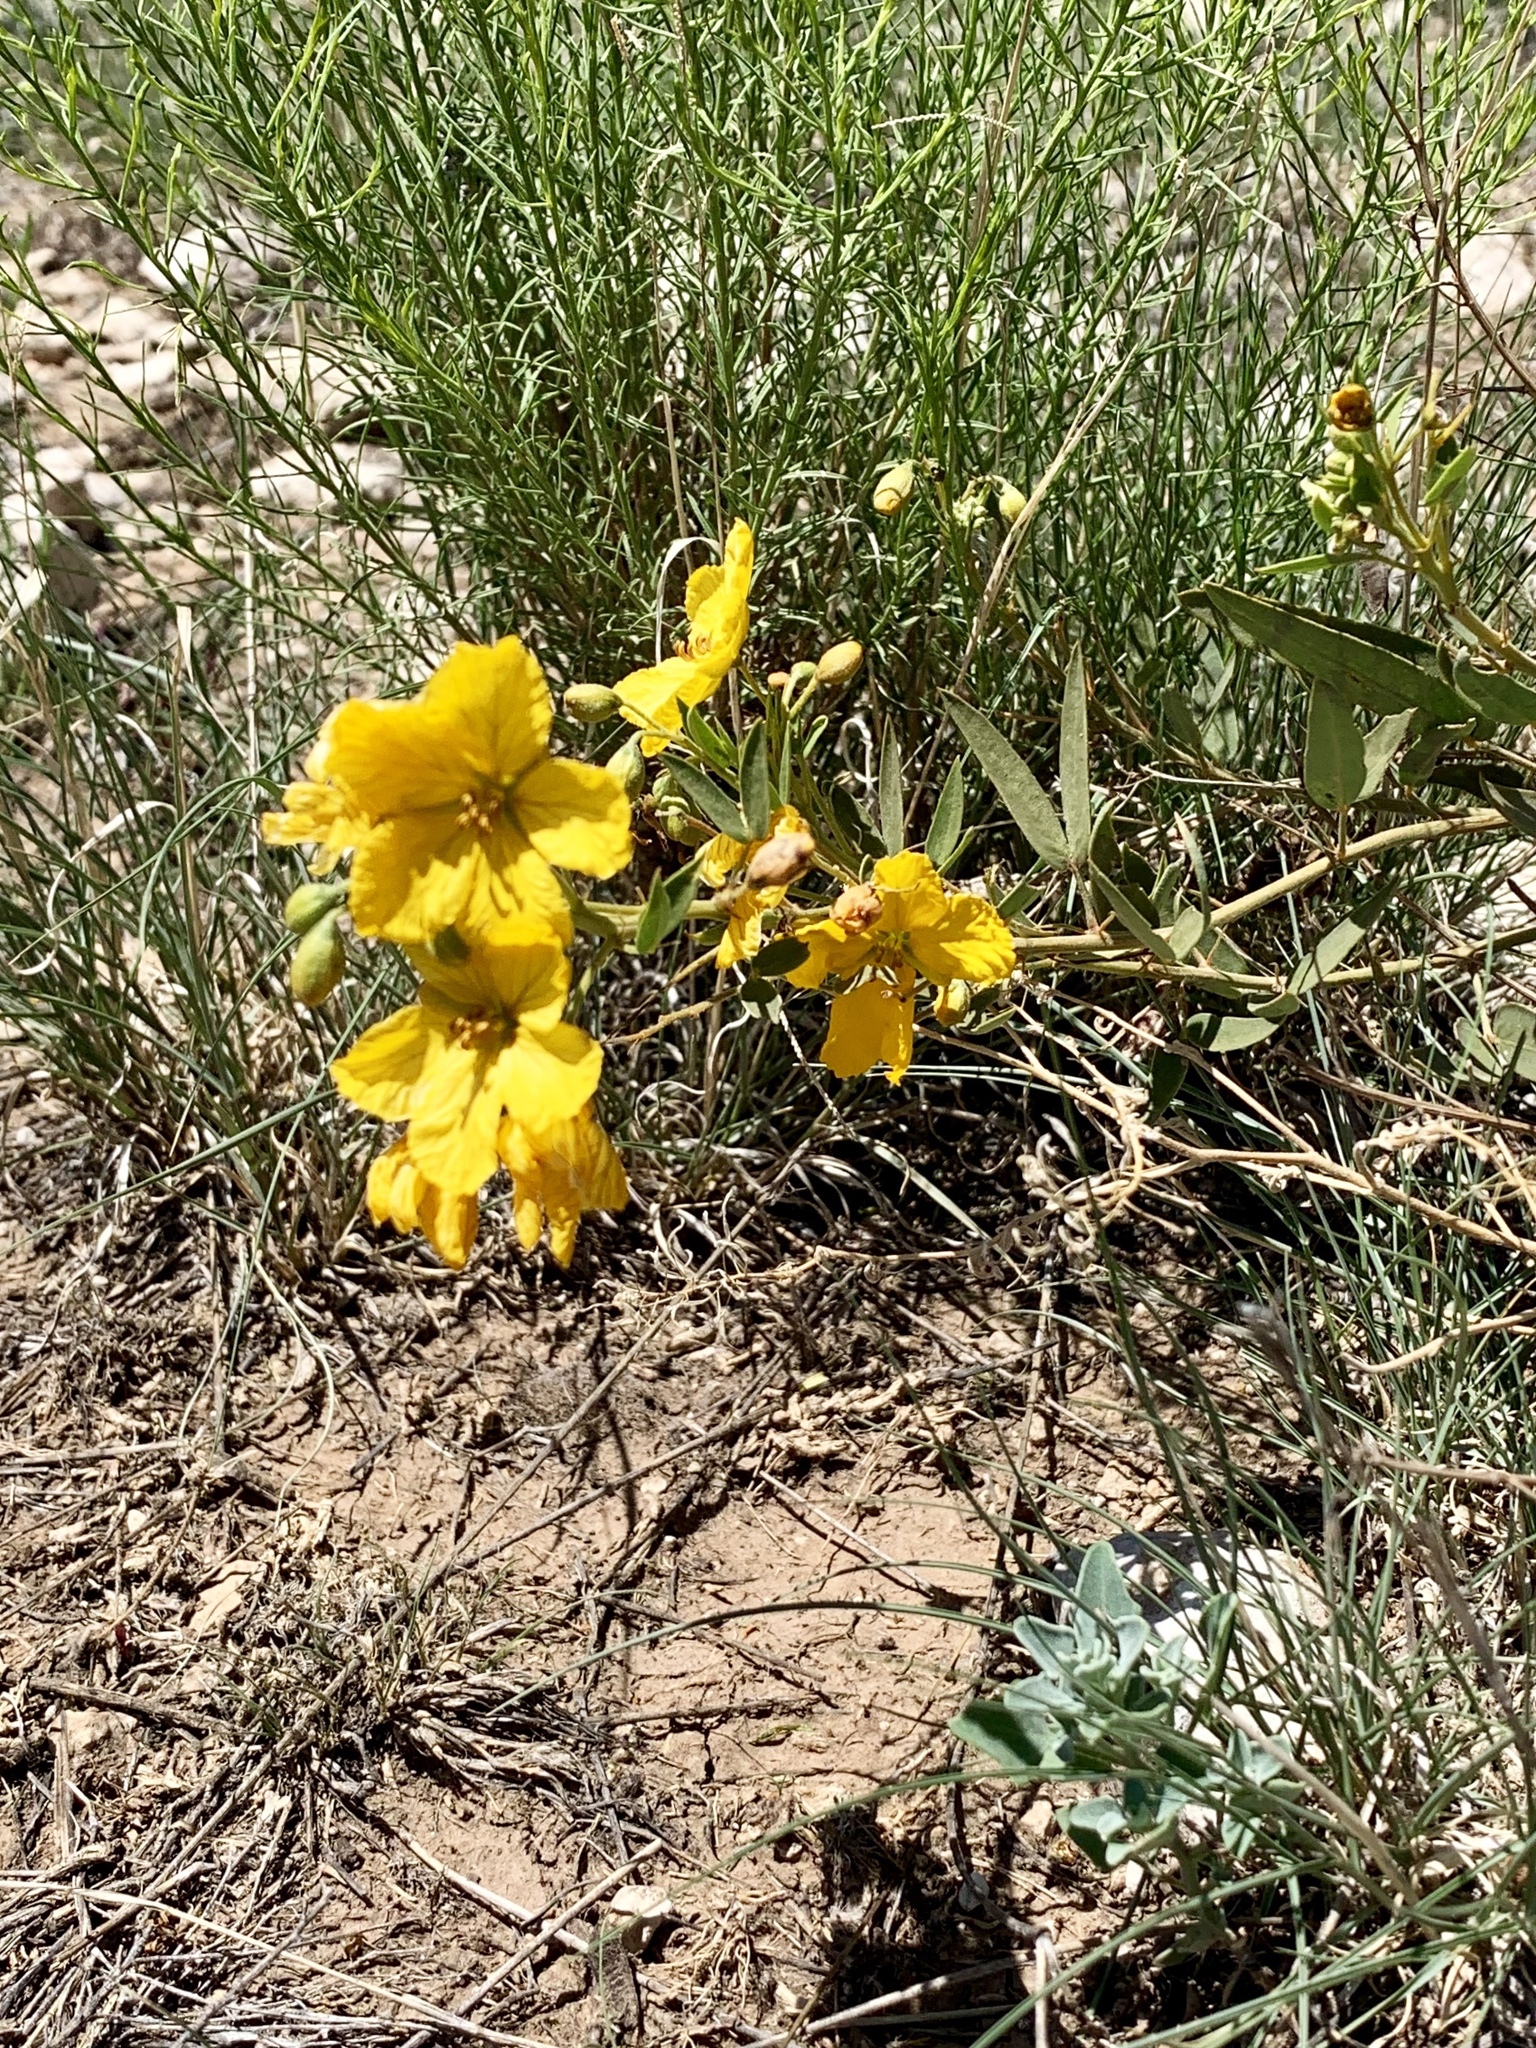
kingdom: Plantae
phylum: Tracheophyta
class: Magnoliopsida
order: Fabales
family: Fabaceae
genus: Senna
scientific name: Senna roemeriana
